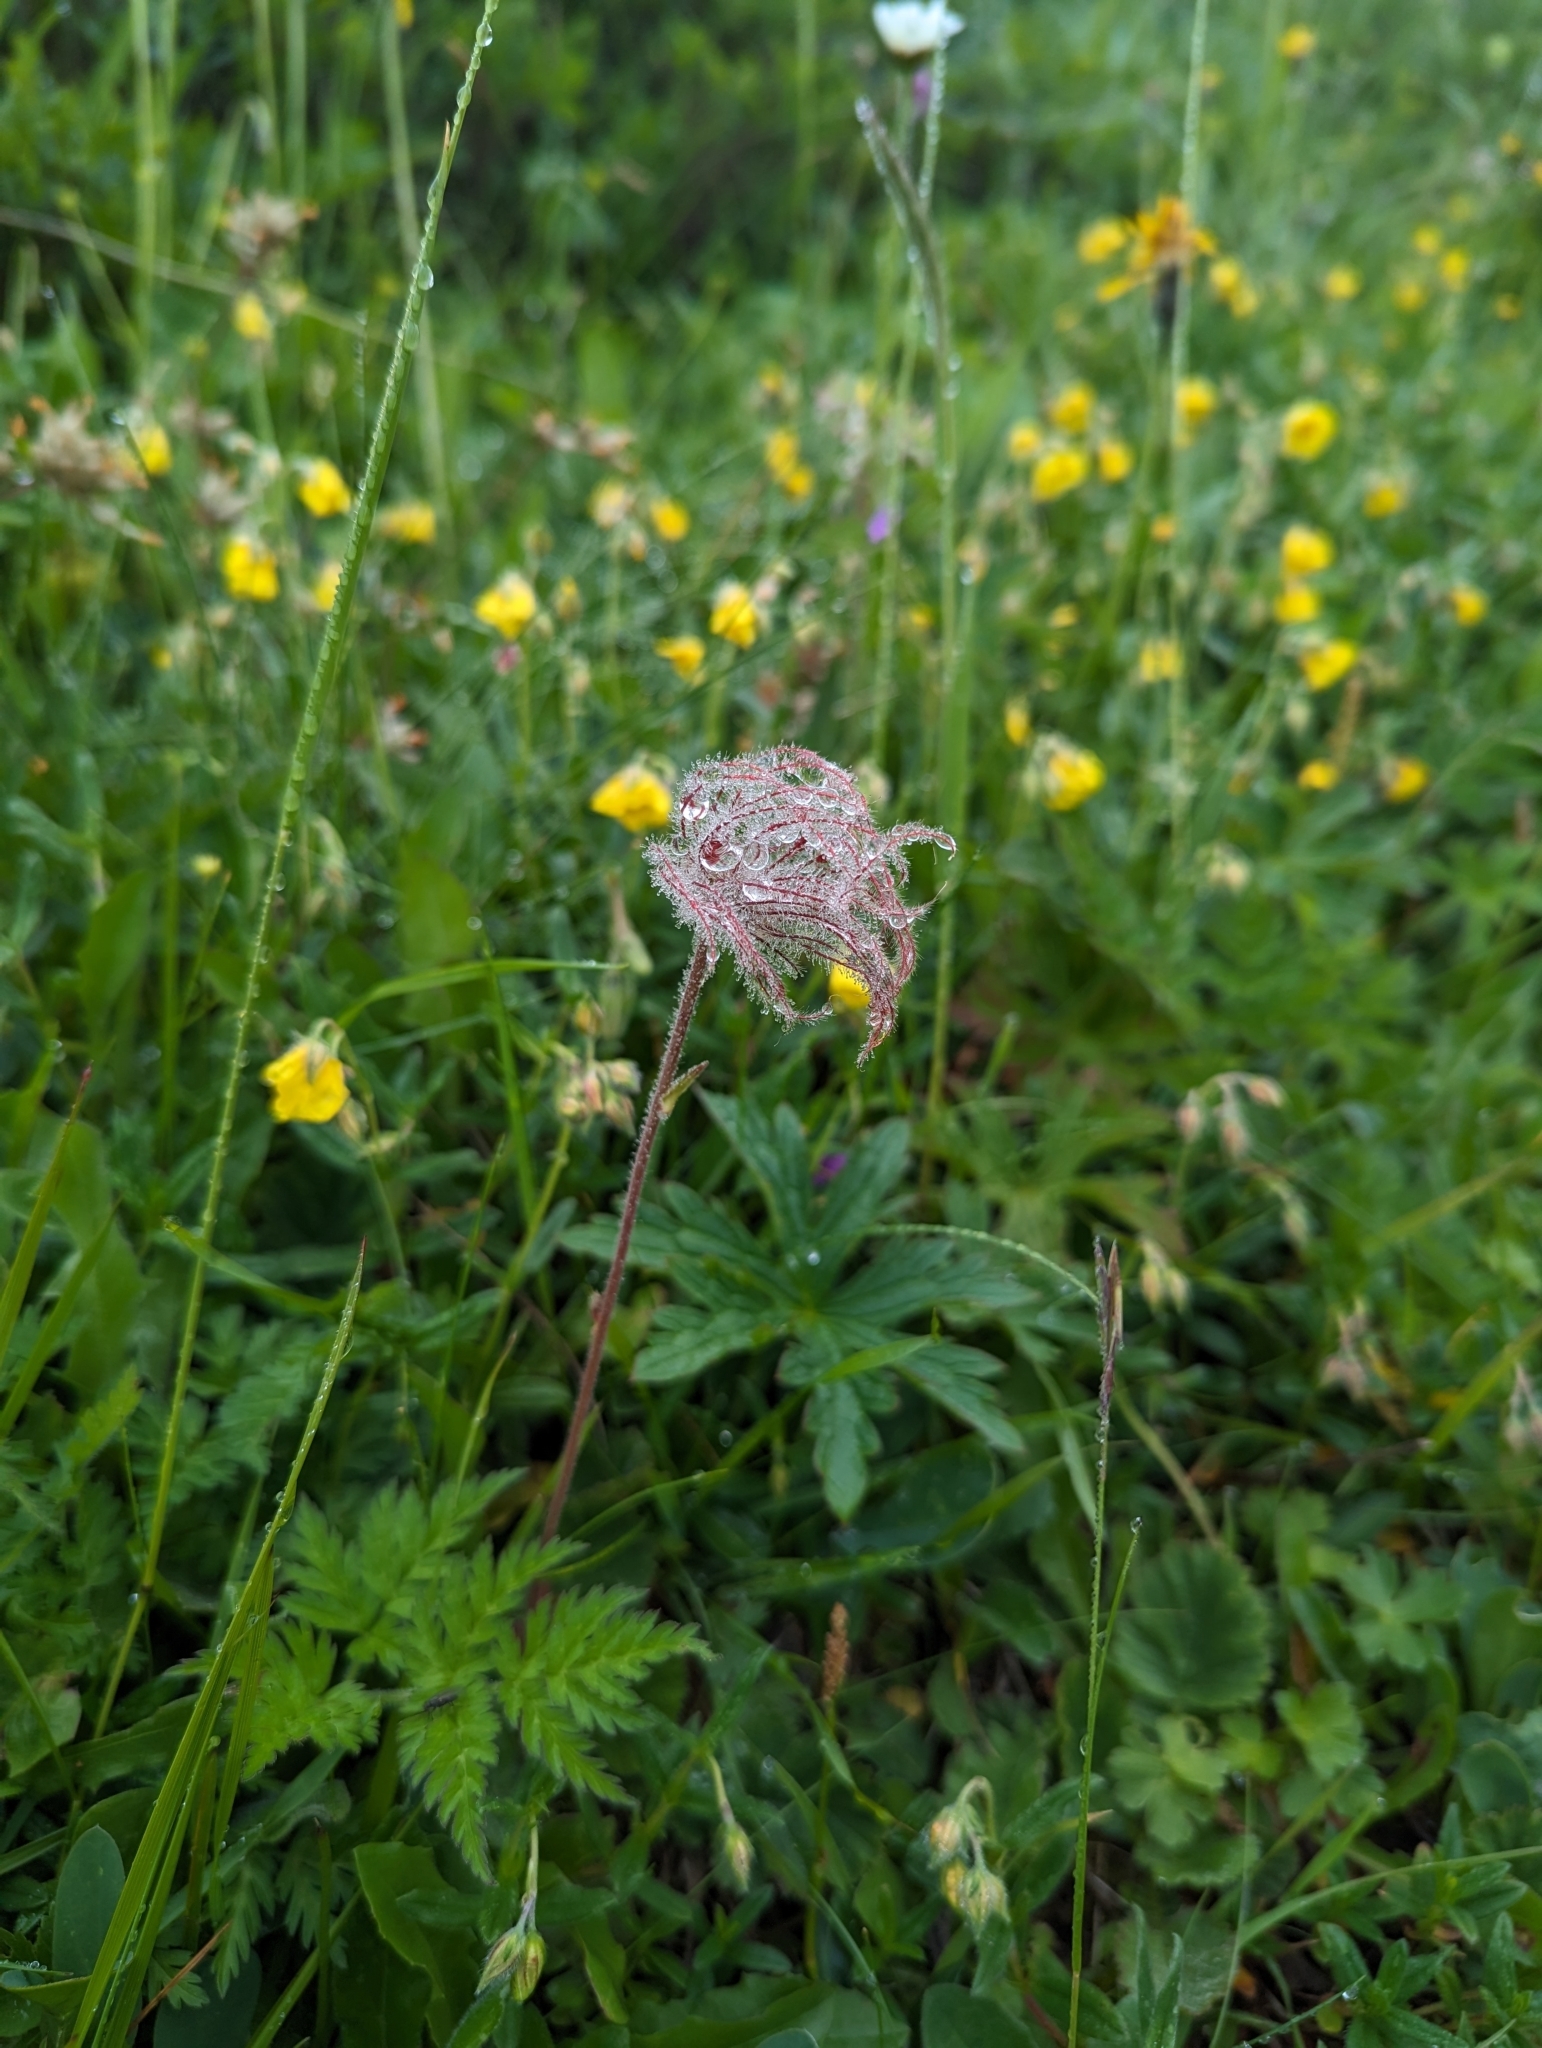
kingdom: Plantae
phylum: Tracheophyta
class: Magnoliopsida
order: Rosales
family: Rosaceae
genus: Geum
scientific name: Geum montanum
